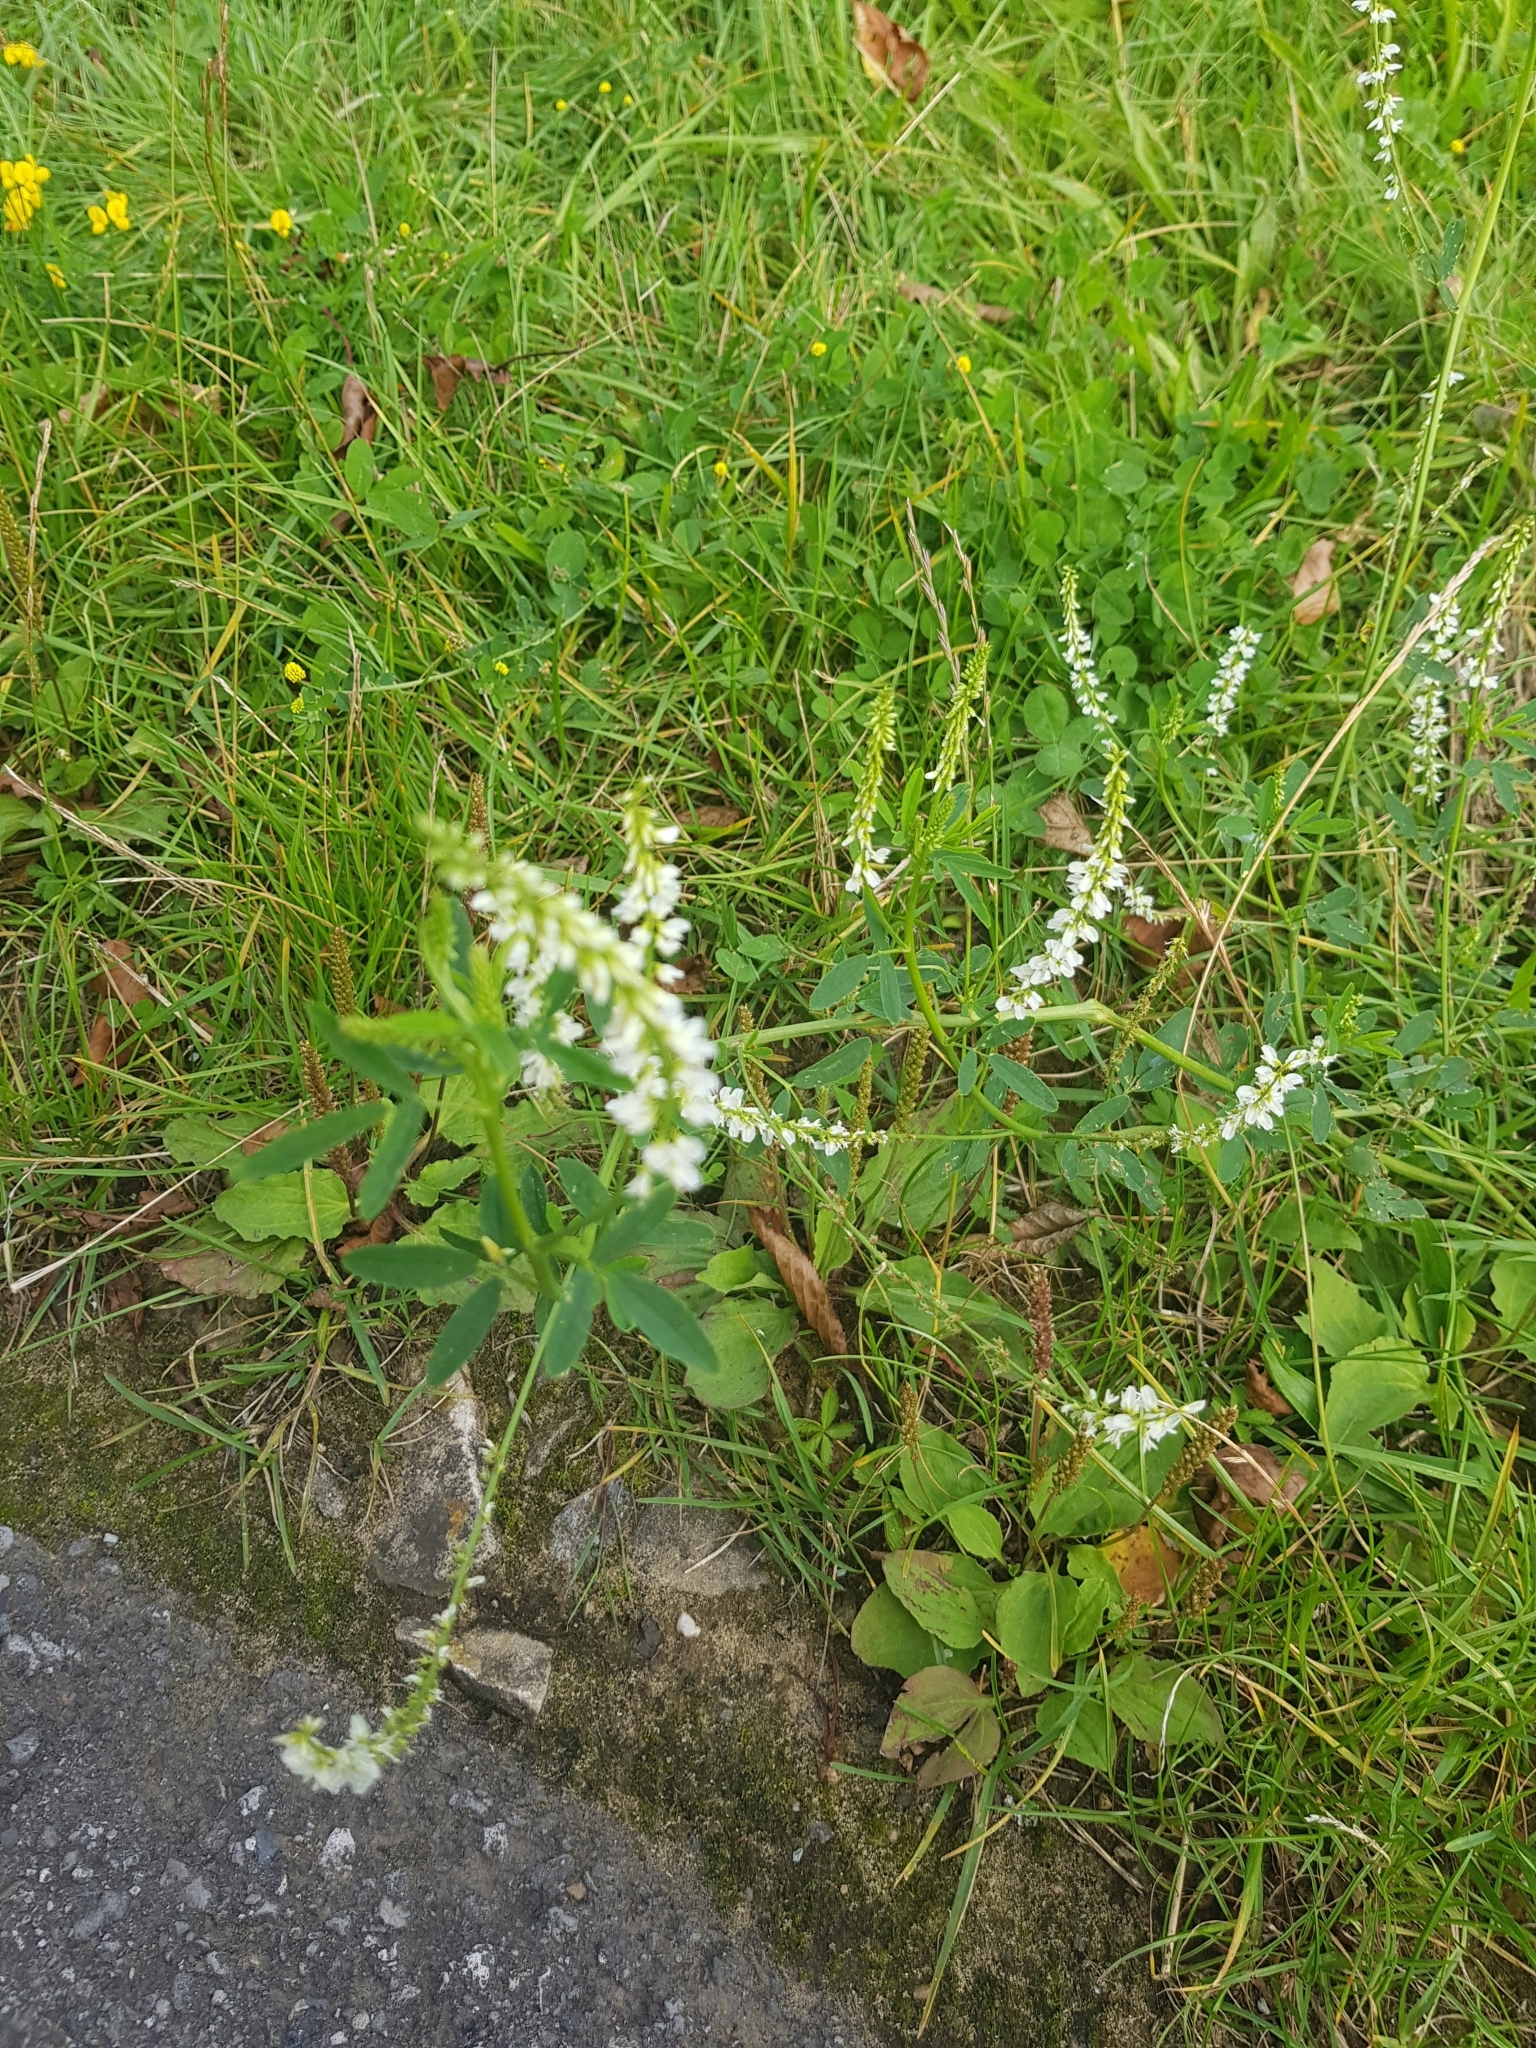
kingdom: Plantae
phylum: Tracheophyta
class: Magnoliopsida
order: Fabales
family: Fabaceae
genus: Melilotus
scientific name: Melilotus albus
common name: White melilot
